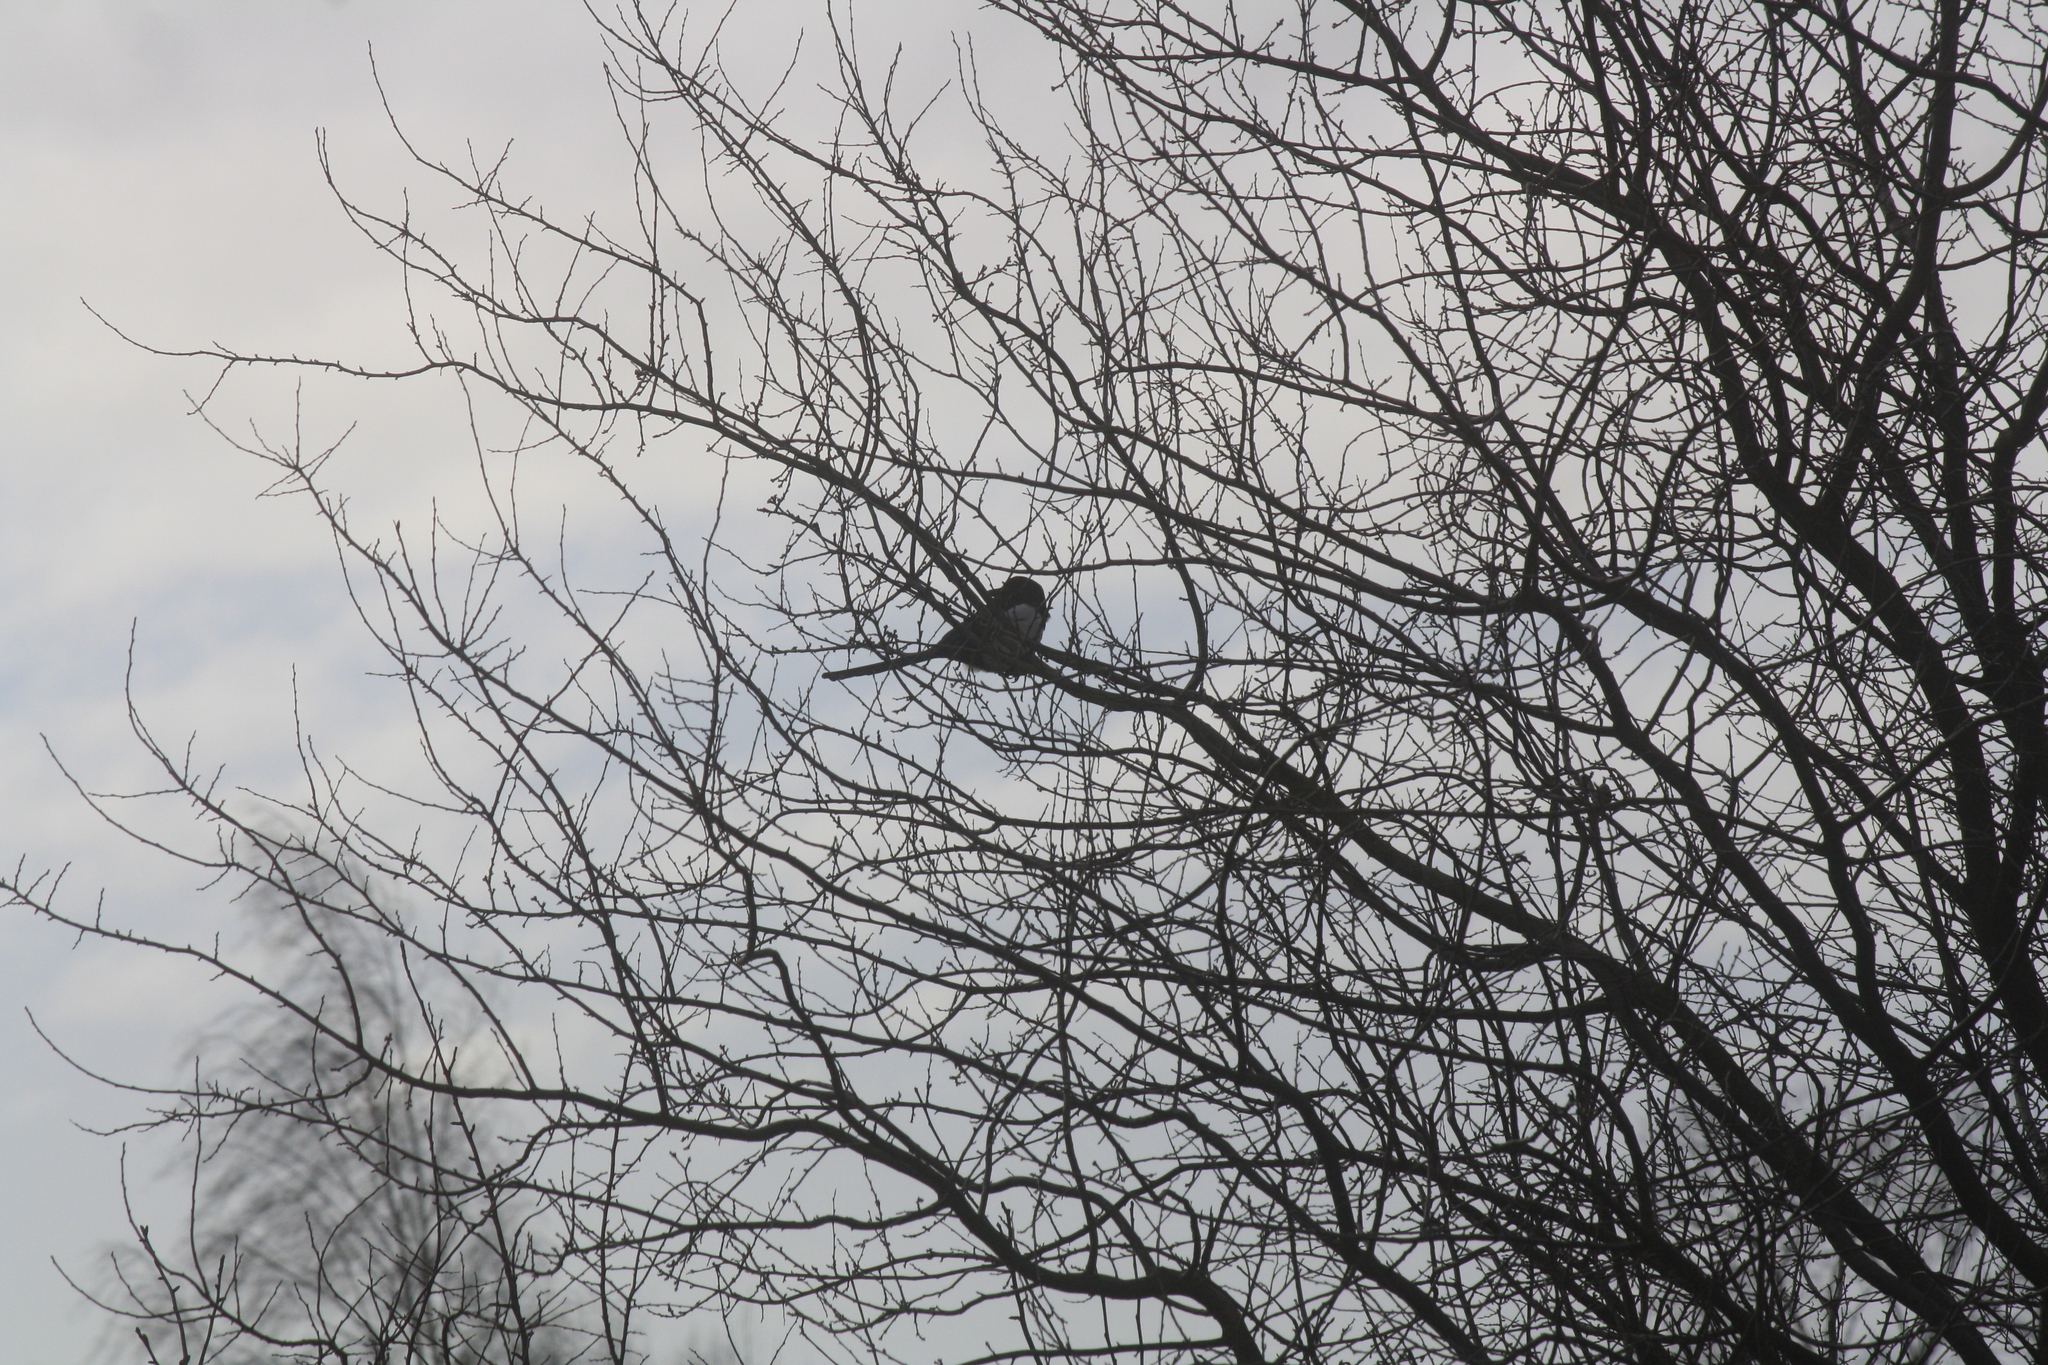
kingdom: Animalia
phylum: Chordata
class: Aves
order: Passeriformes
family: Corvidae
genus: Pica
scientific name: Pica pica
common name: Eurasian magpie
